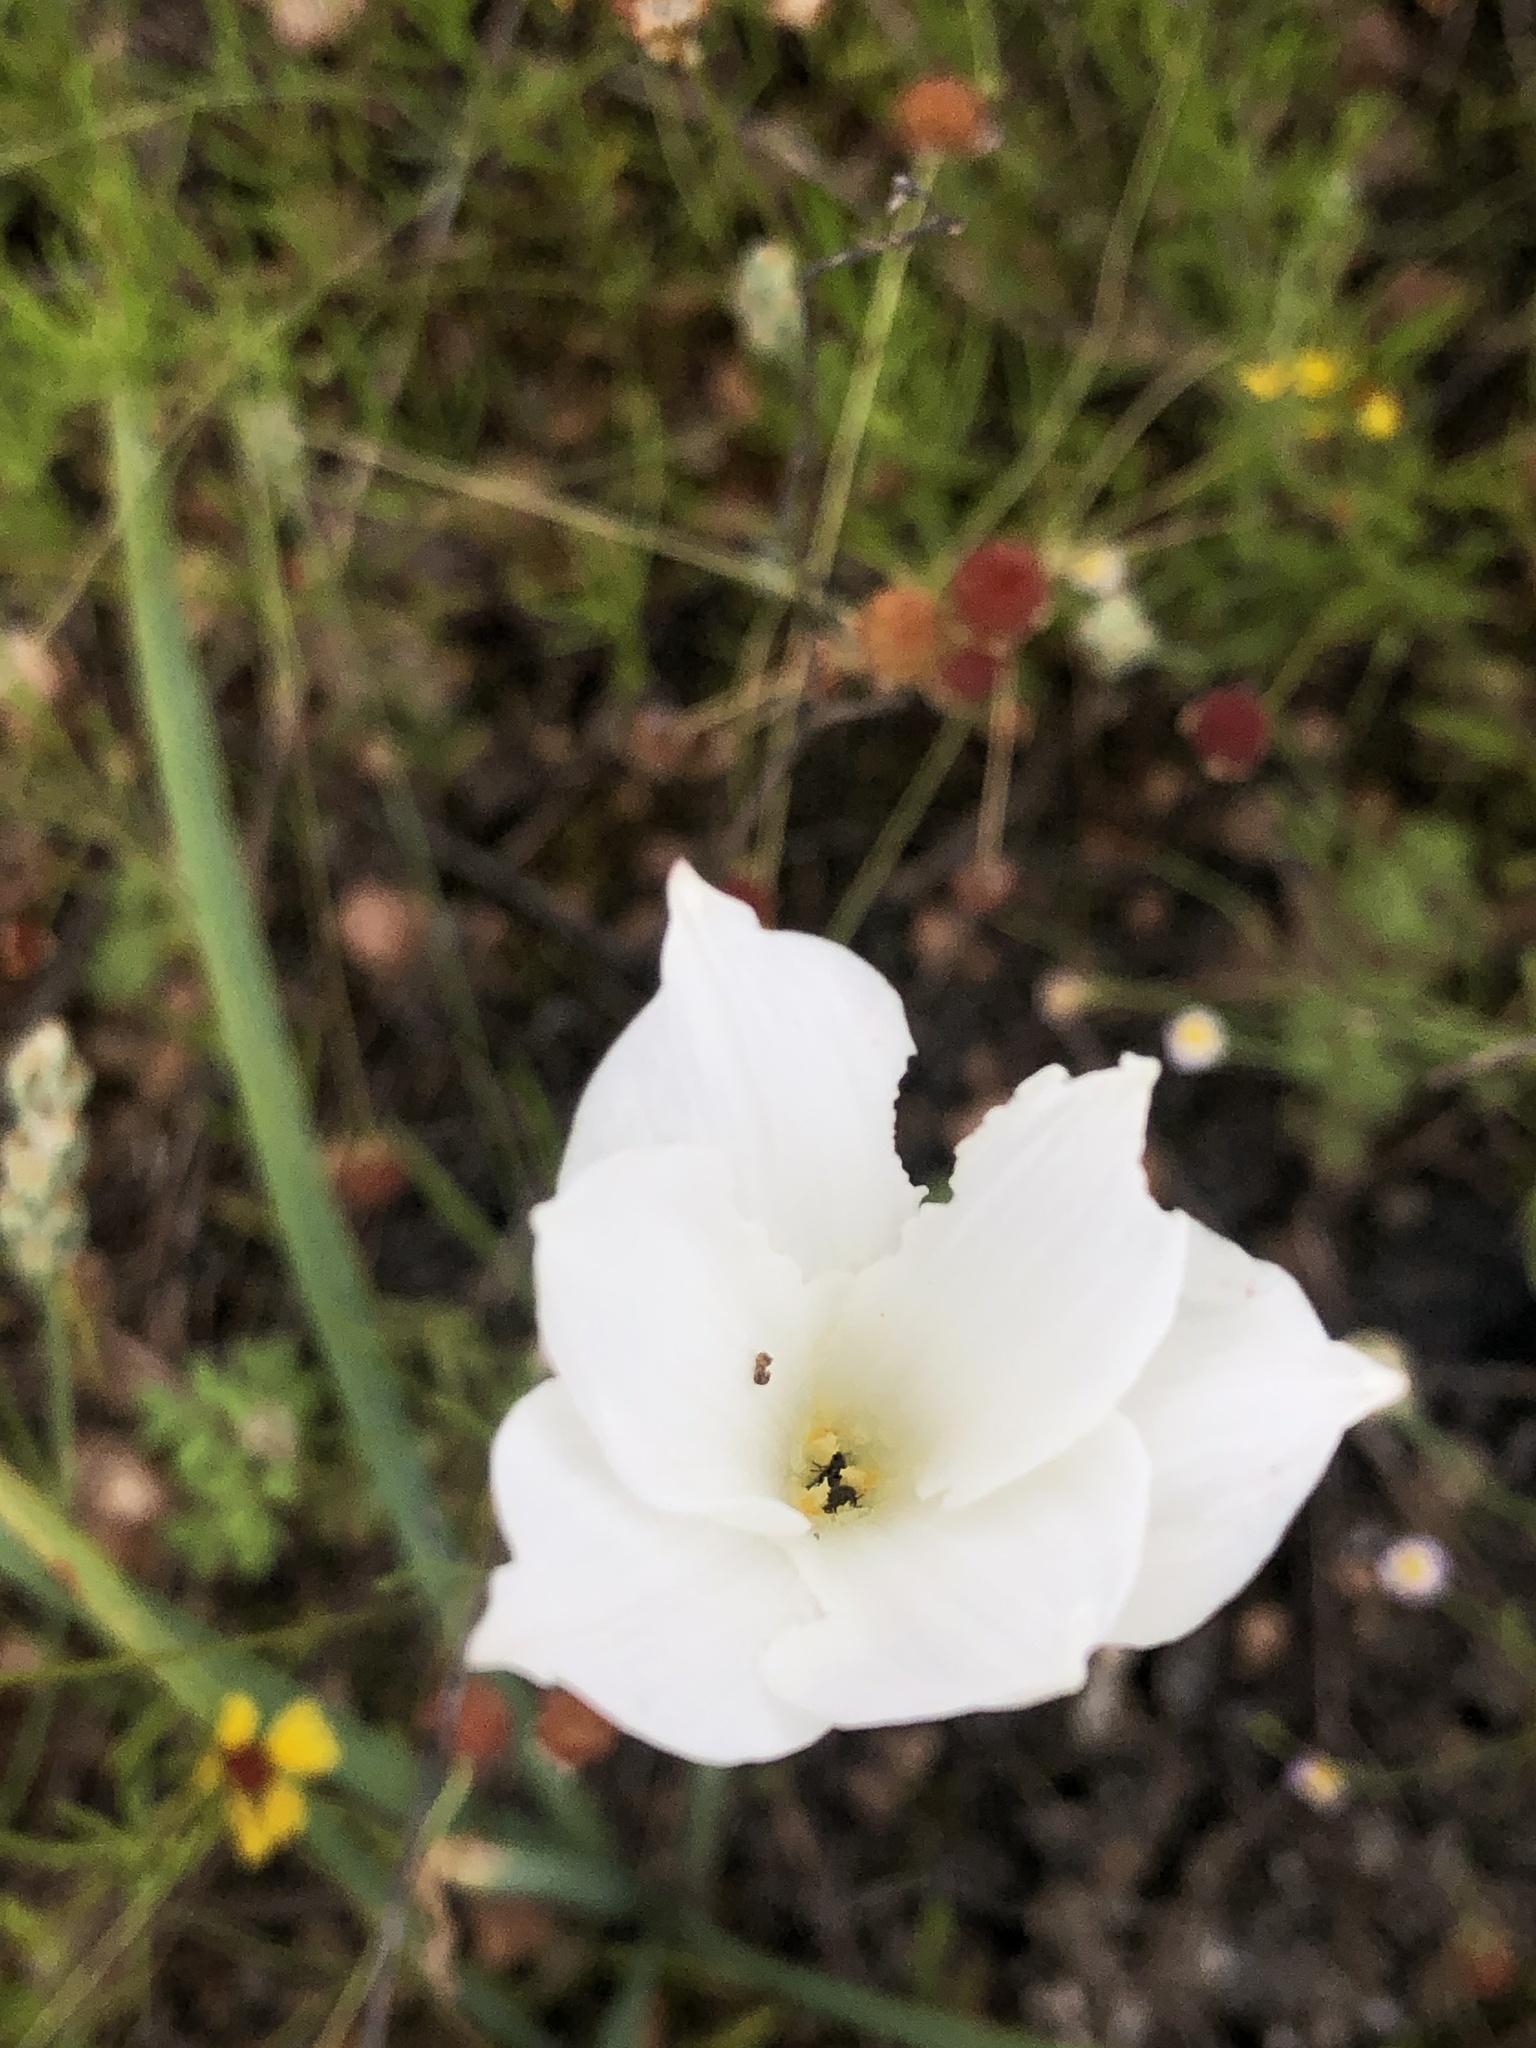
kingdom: Plantae
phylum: Tracheophyta
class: Liliopsida
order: Asparagales
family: Amaryllidaceae
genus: Zephyranthes
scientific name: Zephyranthes drummondii
